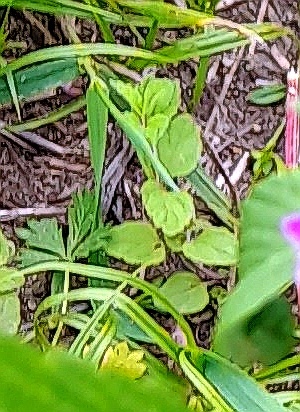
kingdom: Plantae
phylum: Tracheophyta
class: Magnoliopsida
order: Lamiales
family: Plantaginaceae
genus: Veronica
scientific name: Veronica chamaedrys
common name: Germander speedwell
